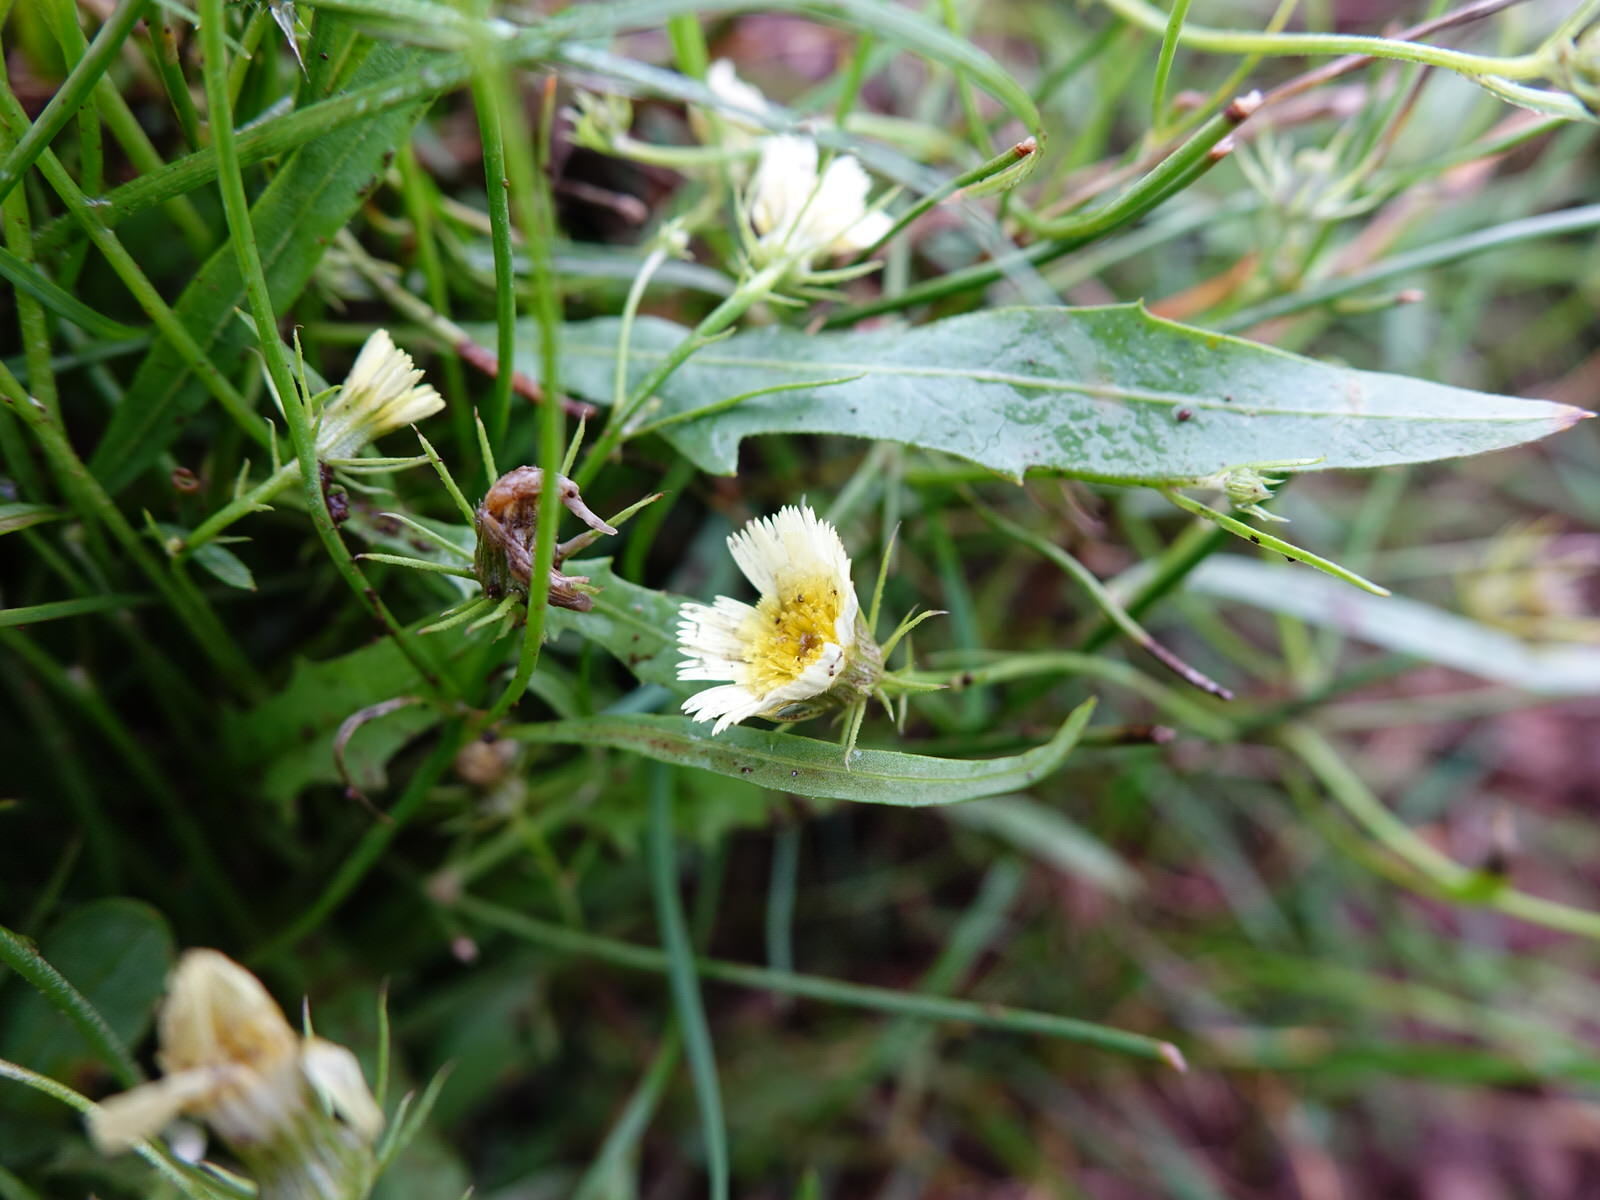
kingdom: Plantae
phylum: Tracheophyta
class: Magnoliopsida
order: Asterales
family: Asteraceae
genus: Tolpis
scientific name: Tolpis barbata
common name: Yellow hawkweed
